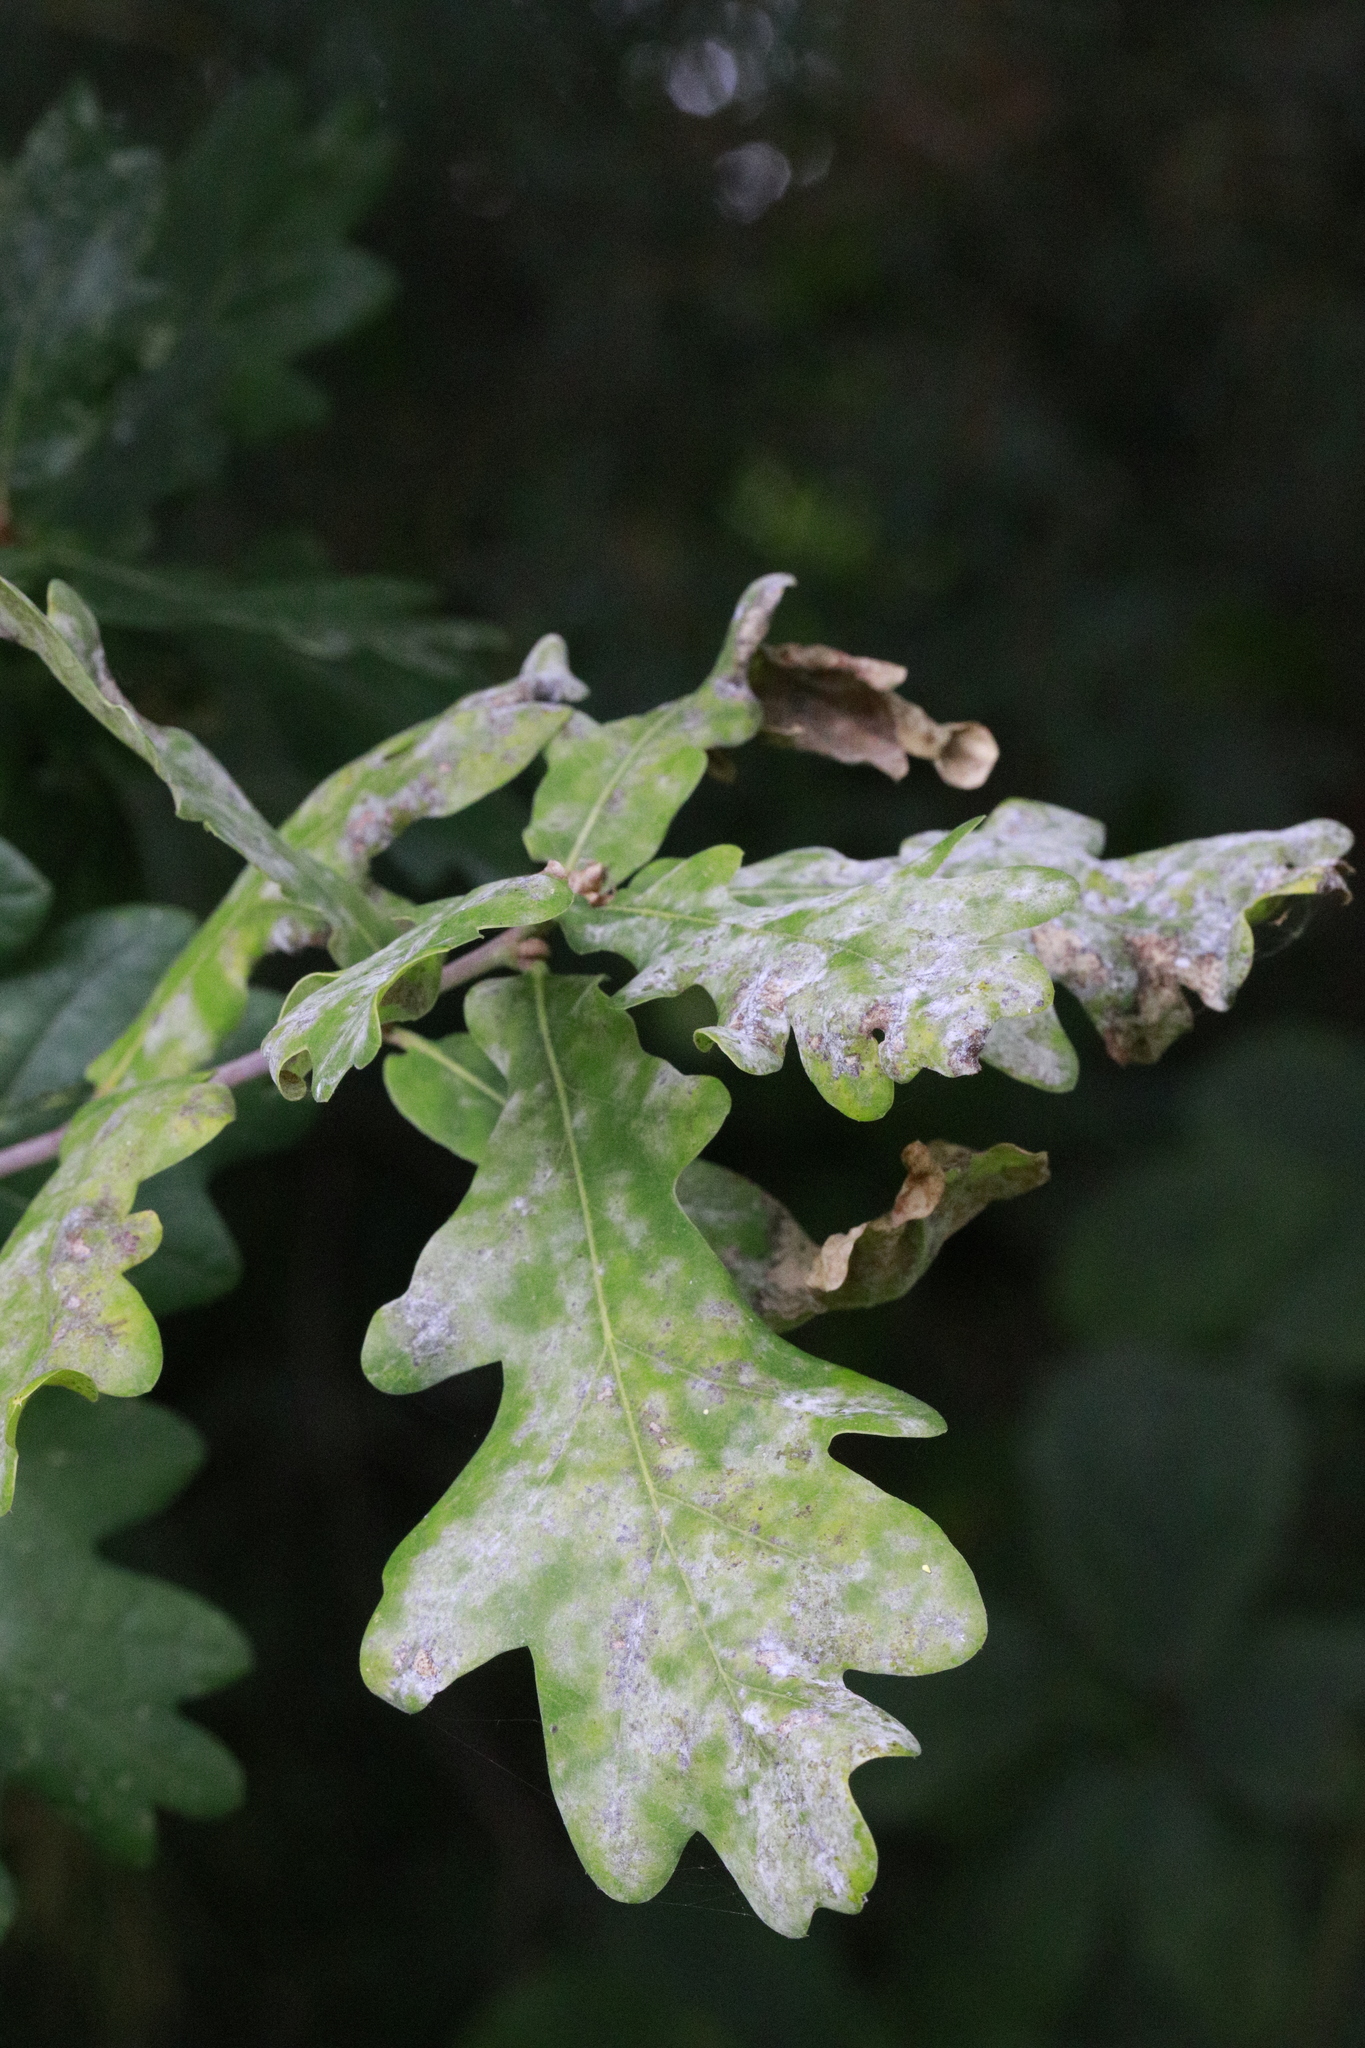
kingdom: Fungi
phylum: Ascomycota
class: Leotiomycetes
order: Helotiales
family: Erysiphaceae
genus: Erysiphe
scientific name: Erysiphe alphitoides
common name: Oak mildew
